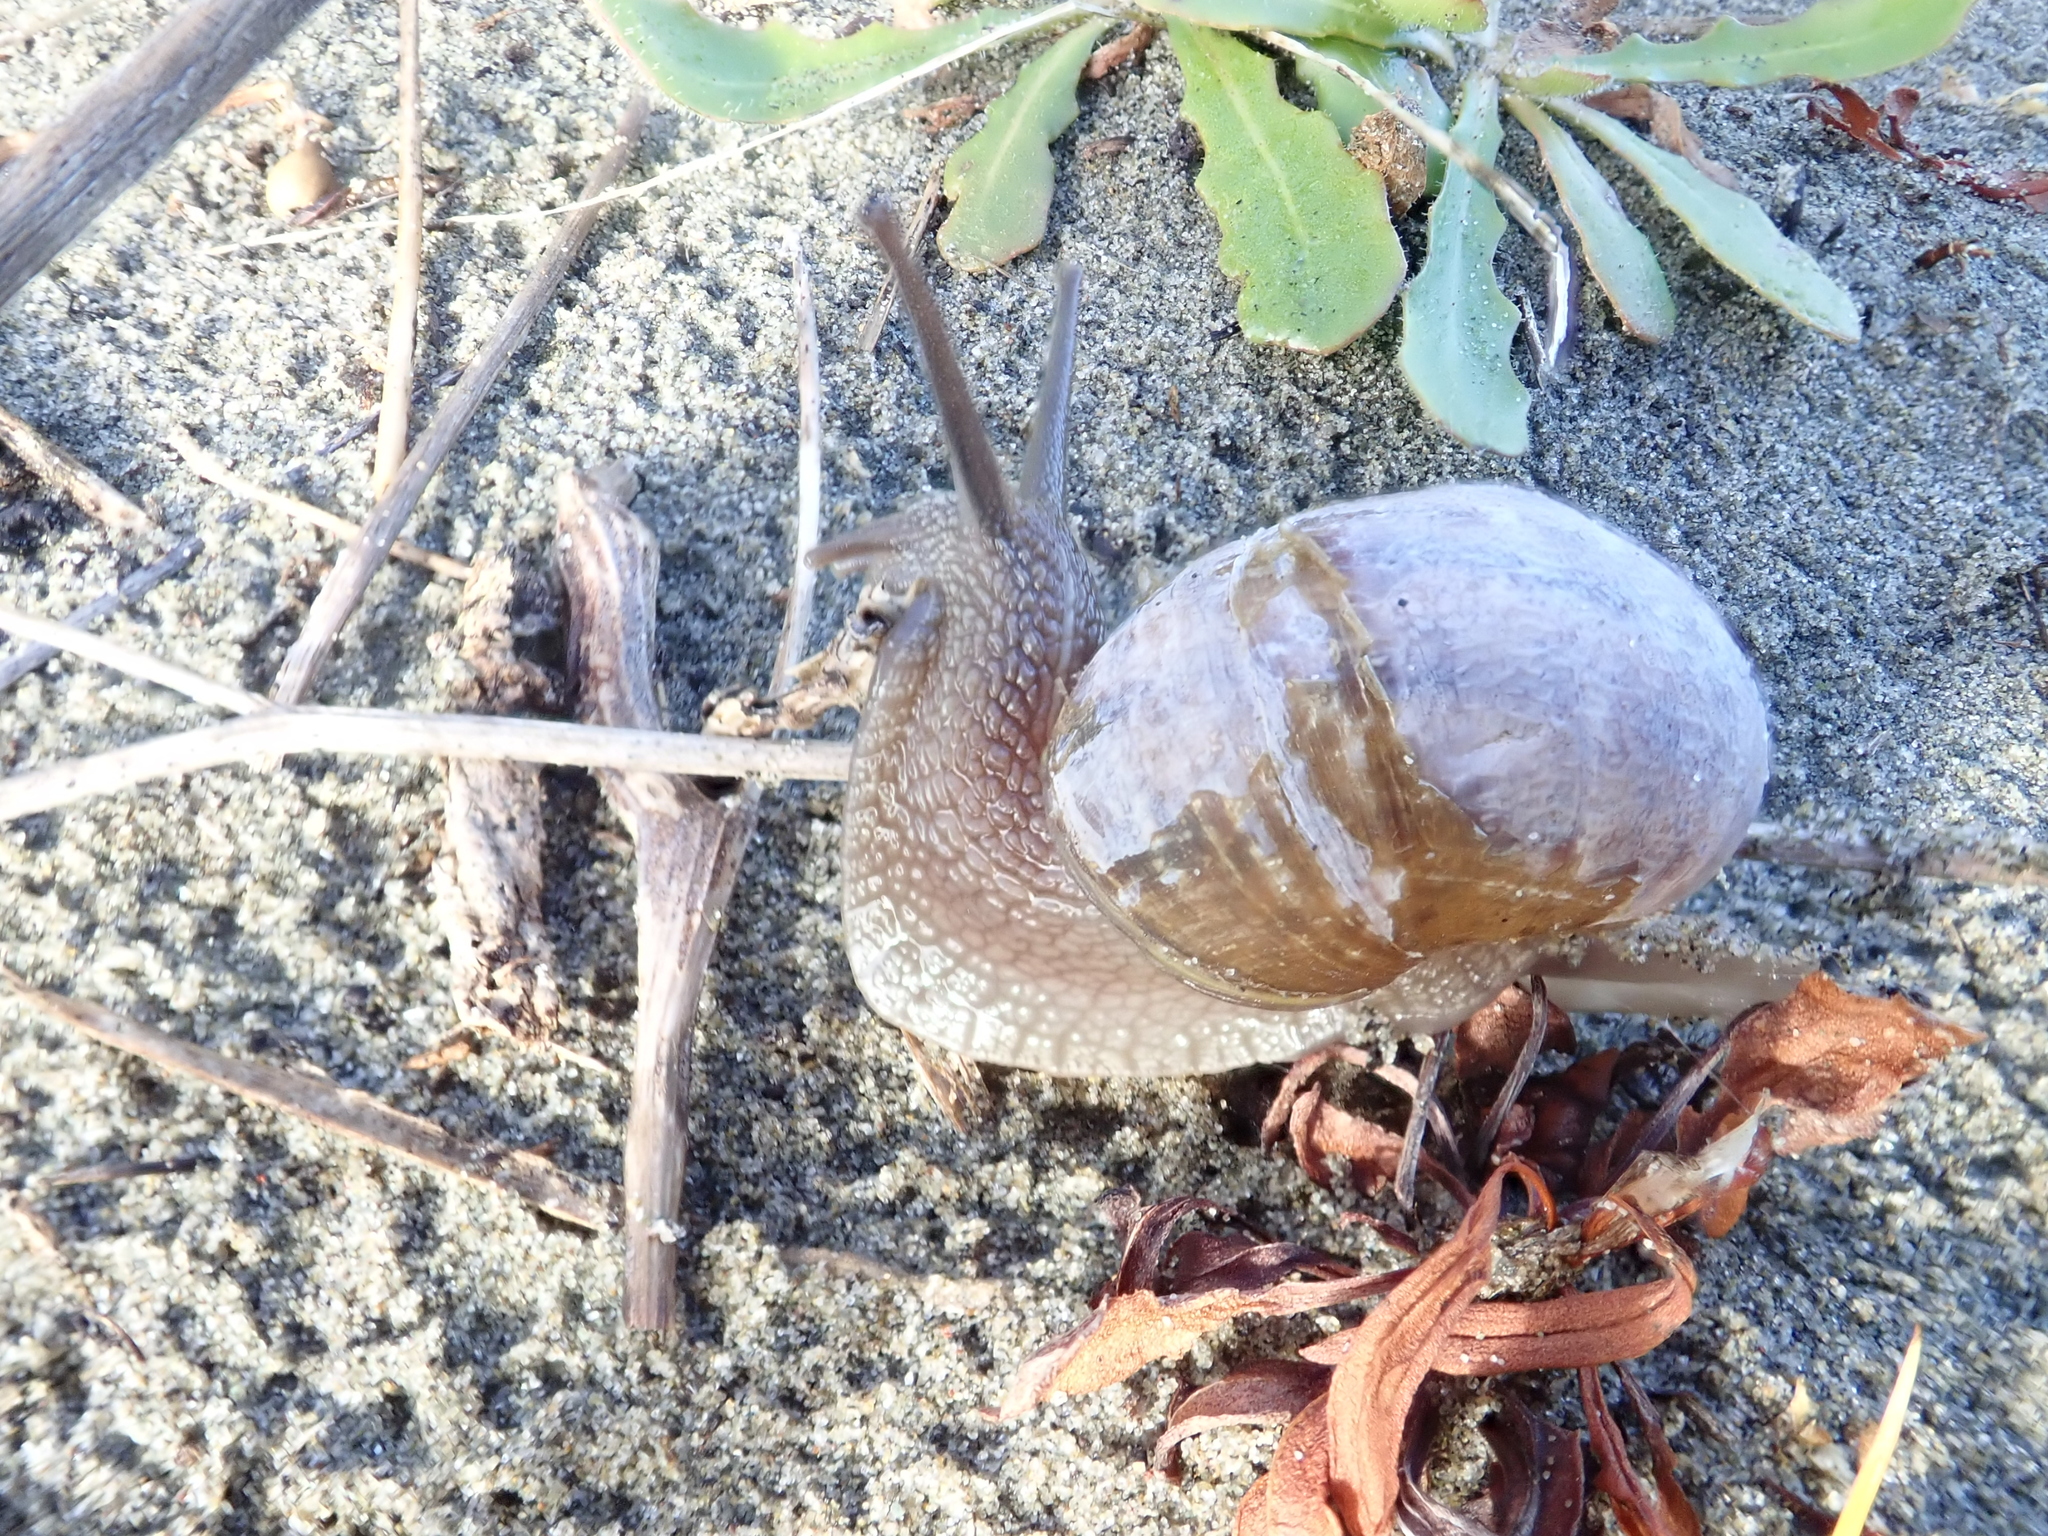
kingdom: Animalia
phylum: Mollusca
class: Gastropoda
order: Stylommatophora
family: Helicidae
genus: Cornu
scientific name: Cornu aspersum
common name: Brown garden snail
